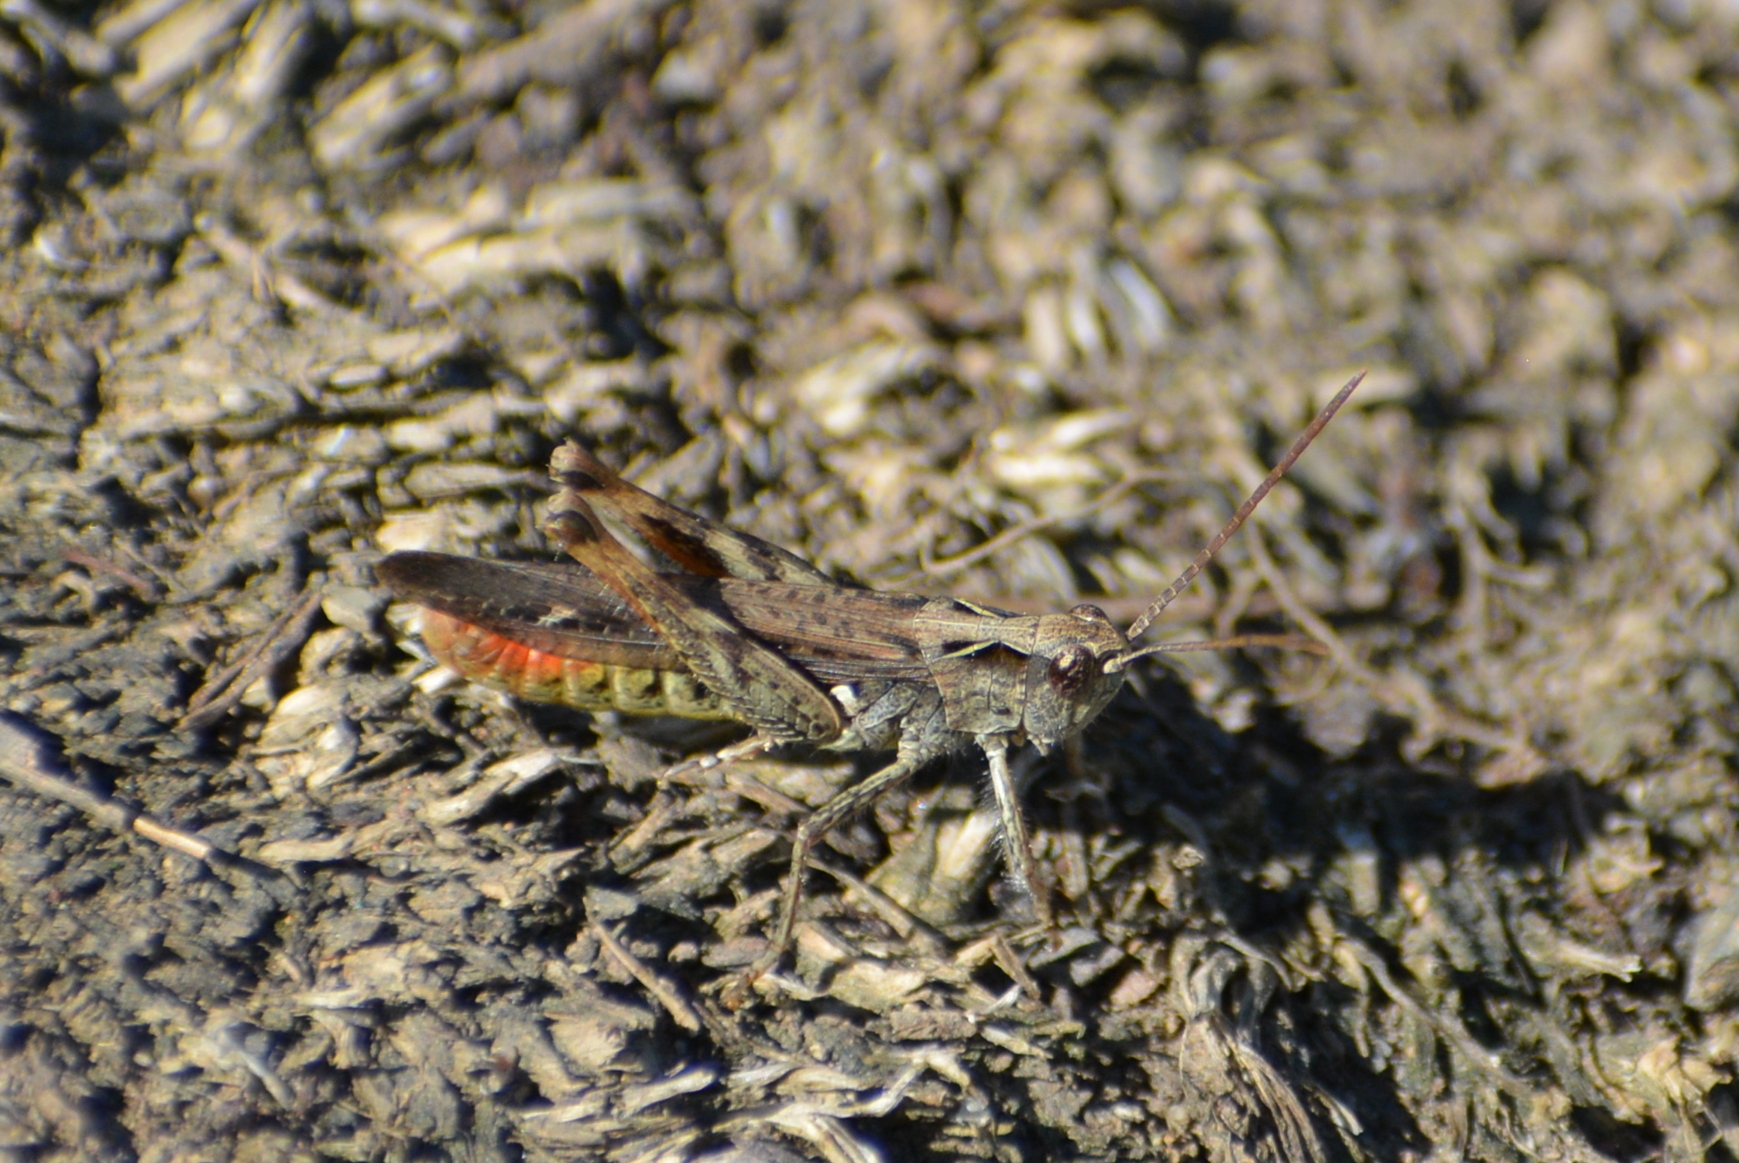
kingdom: Animalia
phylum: Arthropoda
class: Insecta
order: Orthoptera
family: Acrididae
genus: Chorthippus
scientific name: Chorthippus brunneus
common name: Field grasshopper
